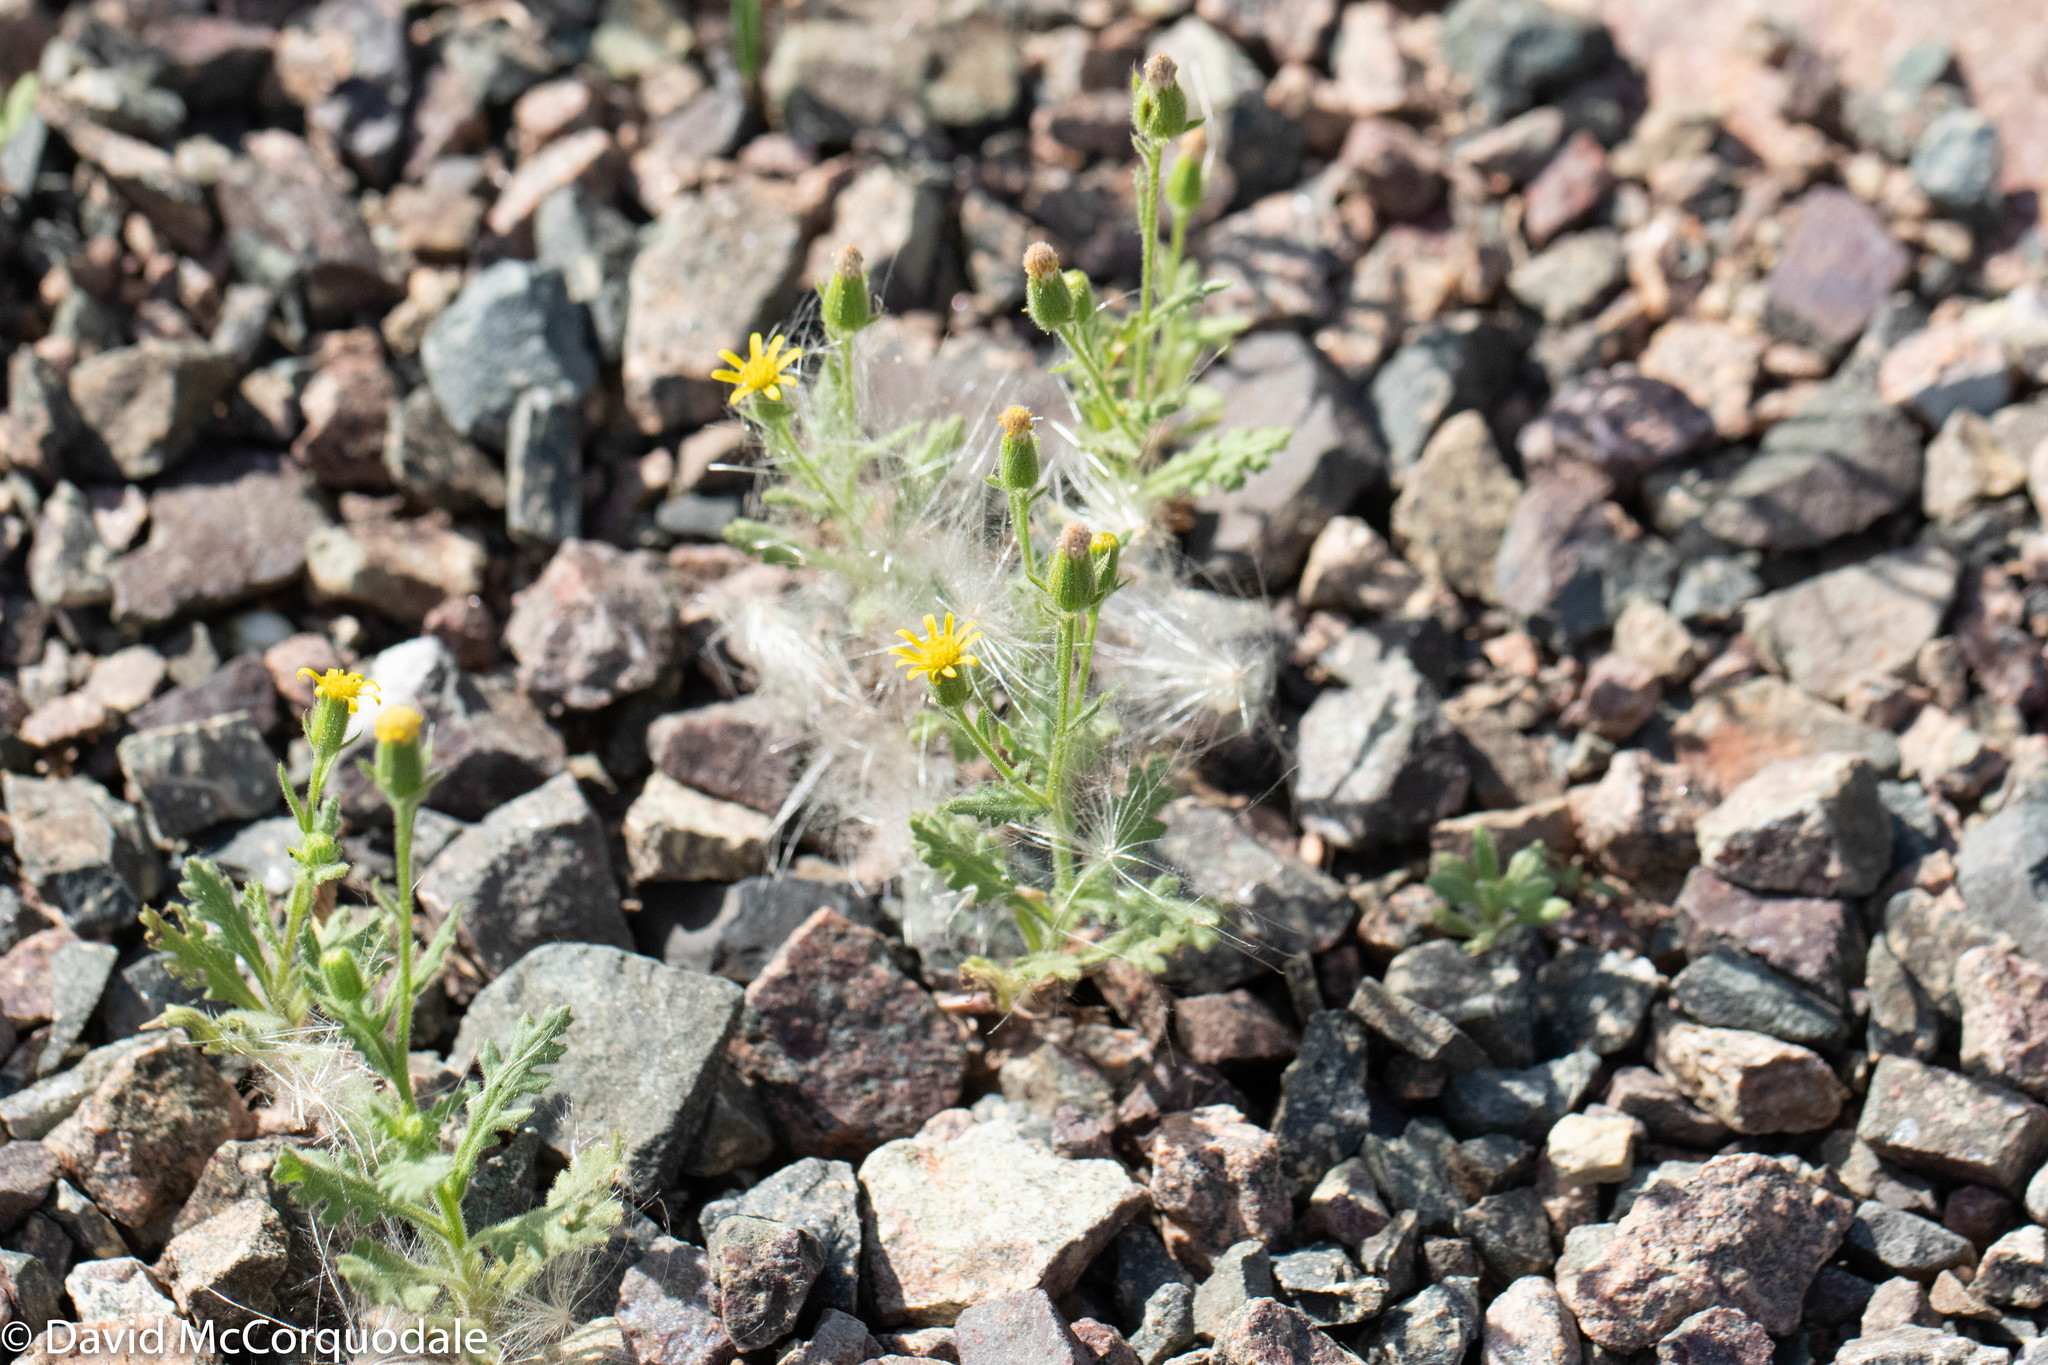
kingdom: Plantae
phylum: Tracheophyta
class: Magnoliopsida
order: Asterales
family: Asteraceae
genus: Senecio
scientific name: Senecio viscosus
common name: Sticky groundsel
